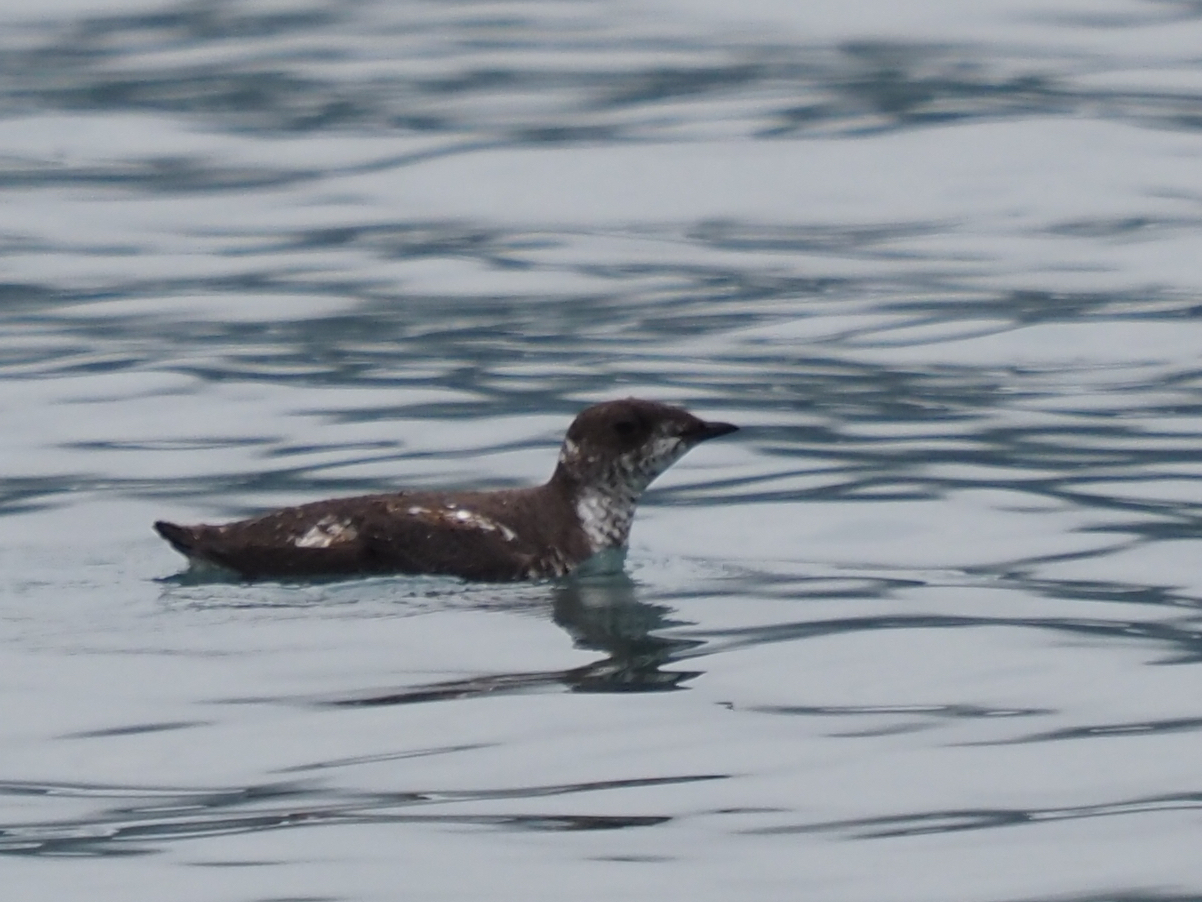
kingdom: Animalia
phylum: Chordata
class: Aves
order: Charadriiformes
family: Alcidae
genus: Brachyramphus
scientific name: Brachyramphus marmoratus
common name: Marbled murrelet
